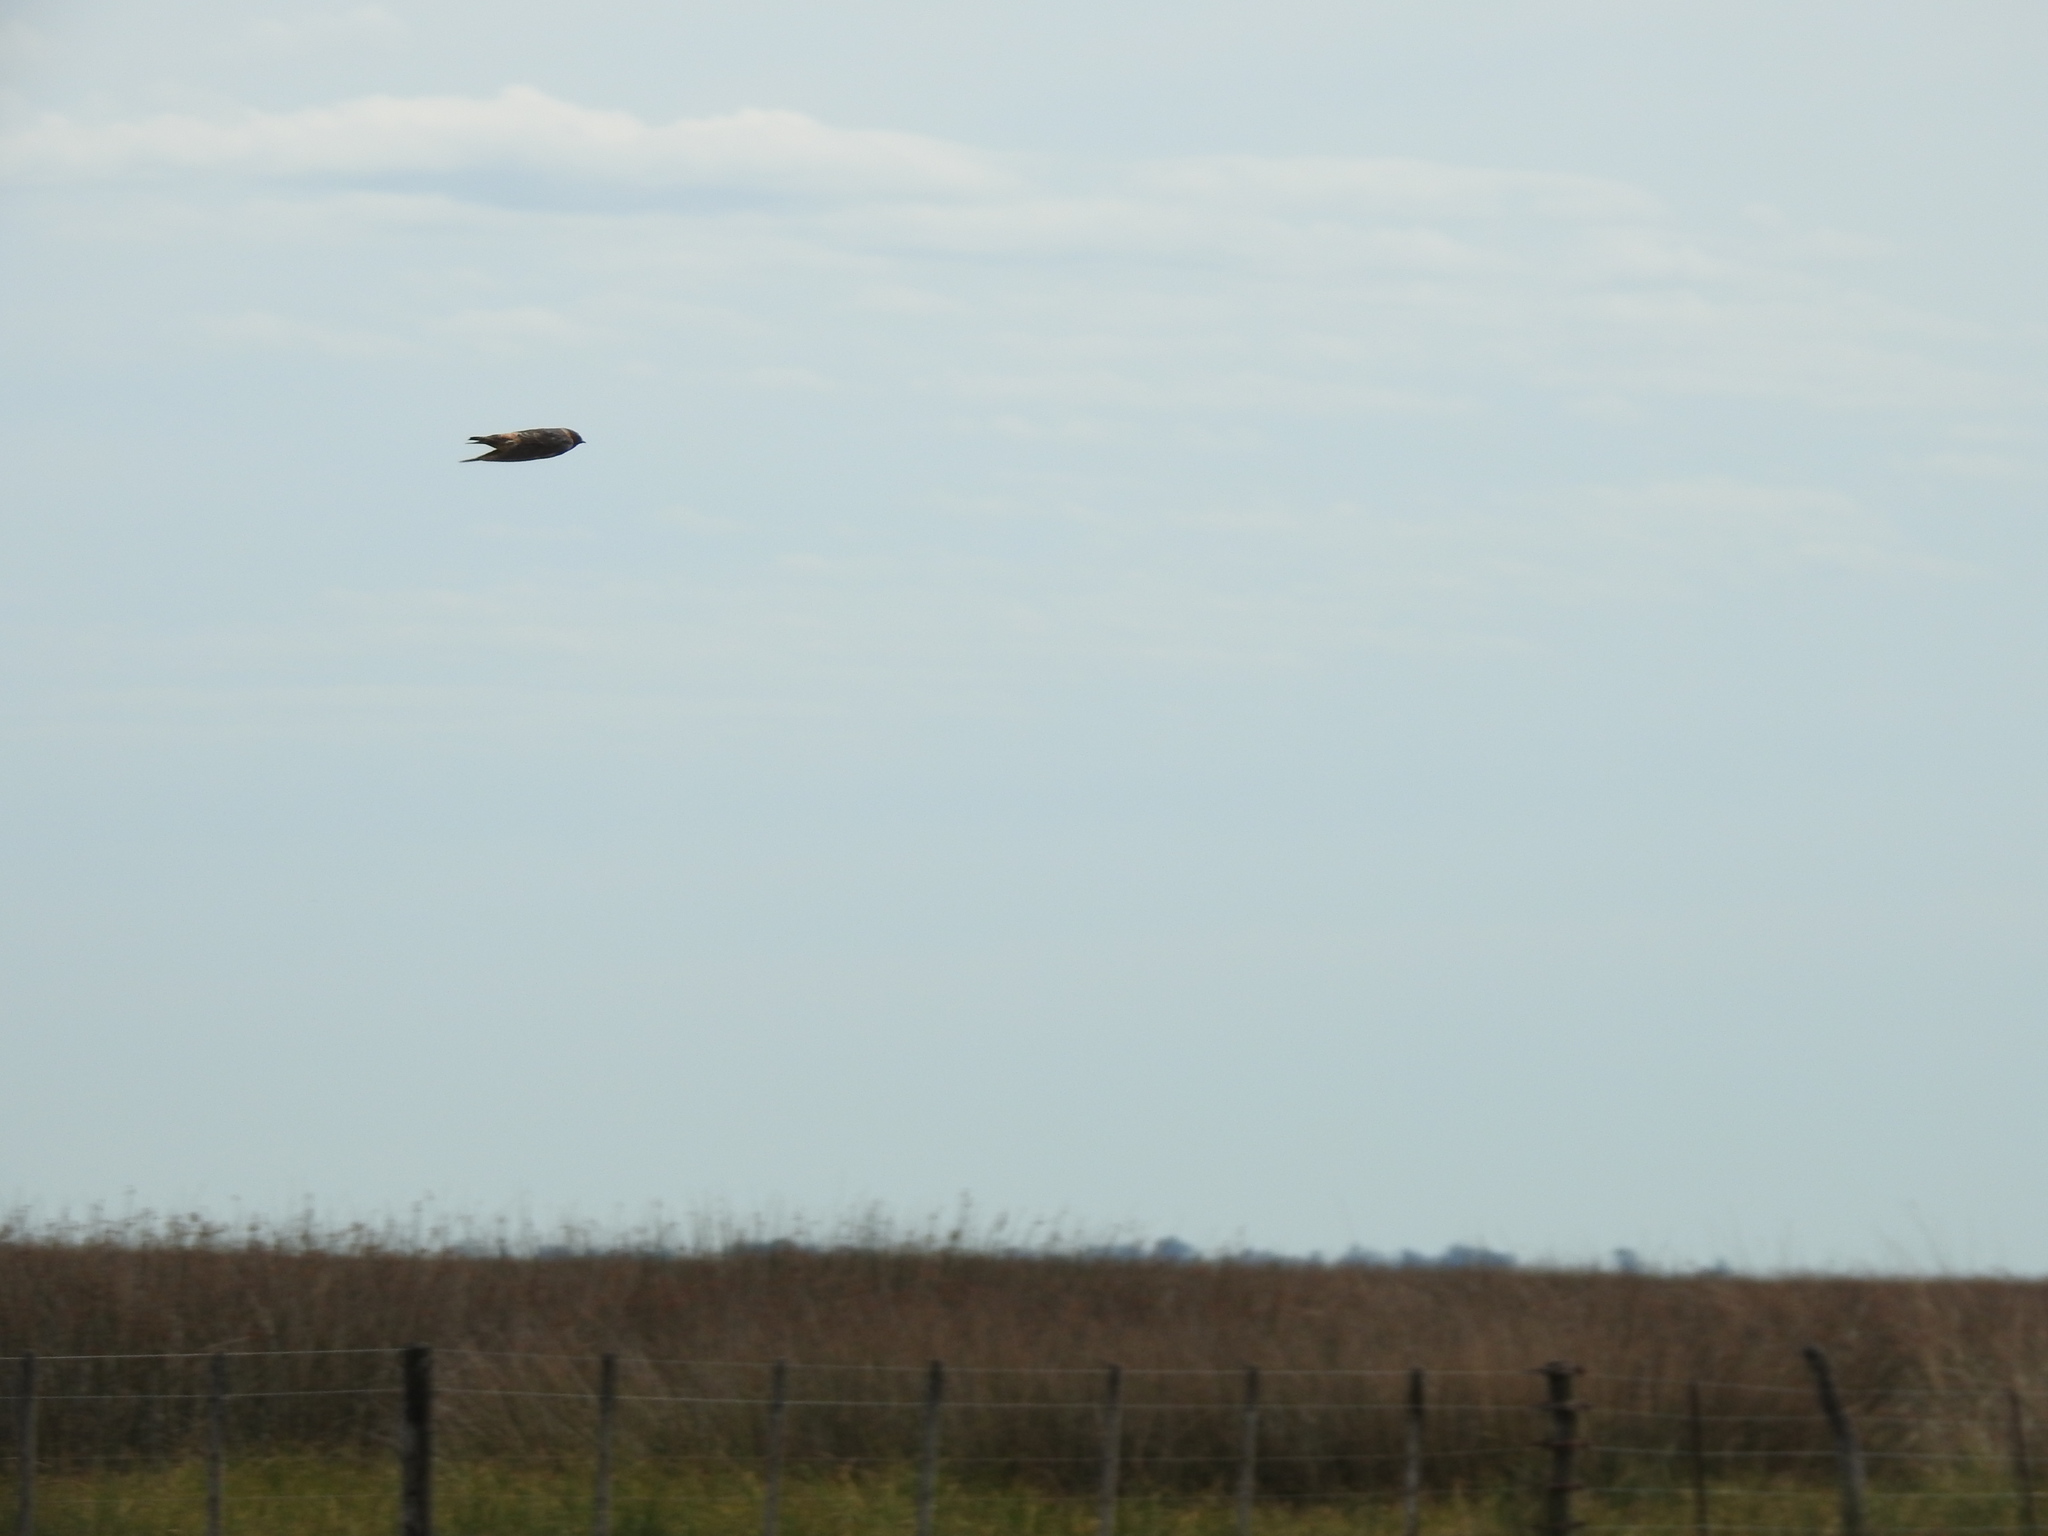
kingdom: Animalia
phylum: Chordata
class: Aves
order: Passeriformes
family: Hirundinidae
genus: Petrochelidon
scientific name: Petrochelidon pyrrhonota
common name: American cliff swallow
